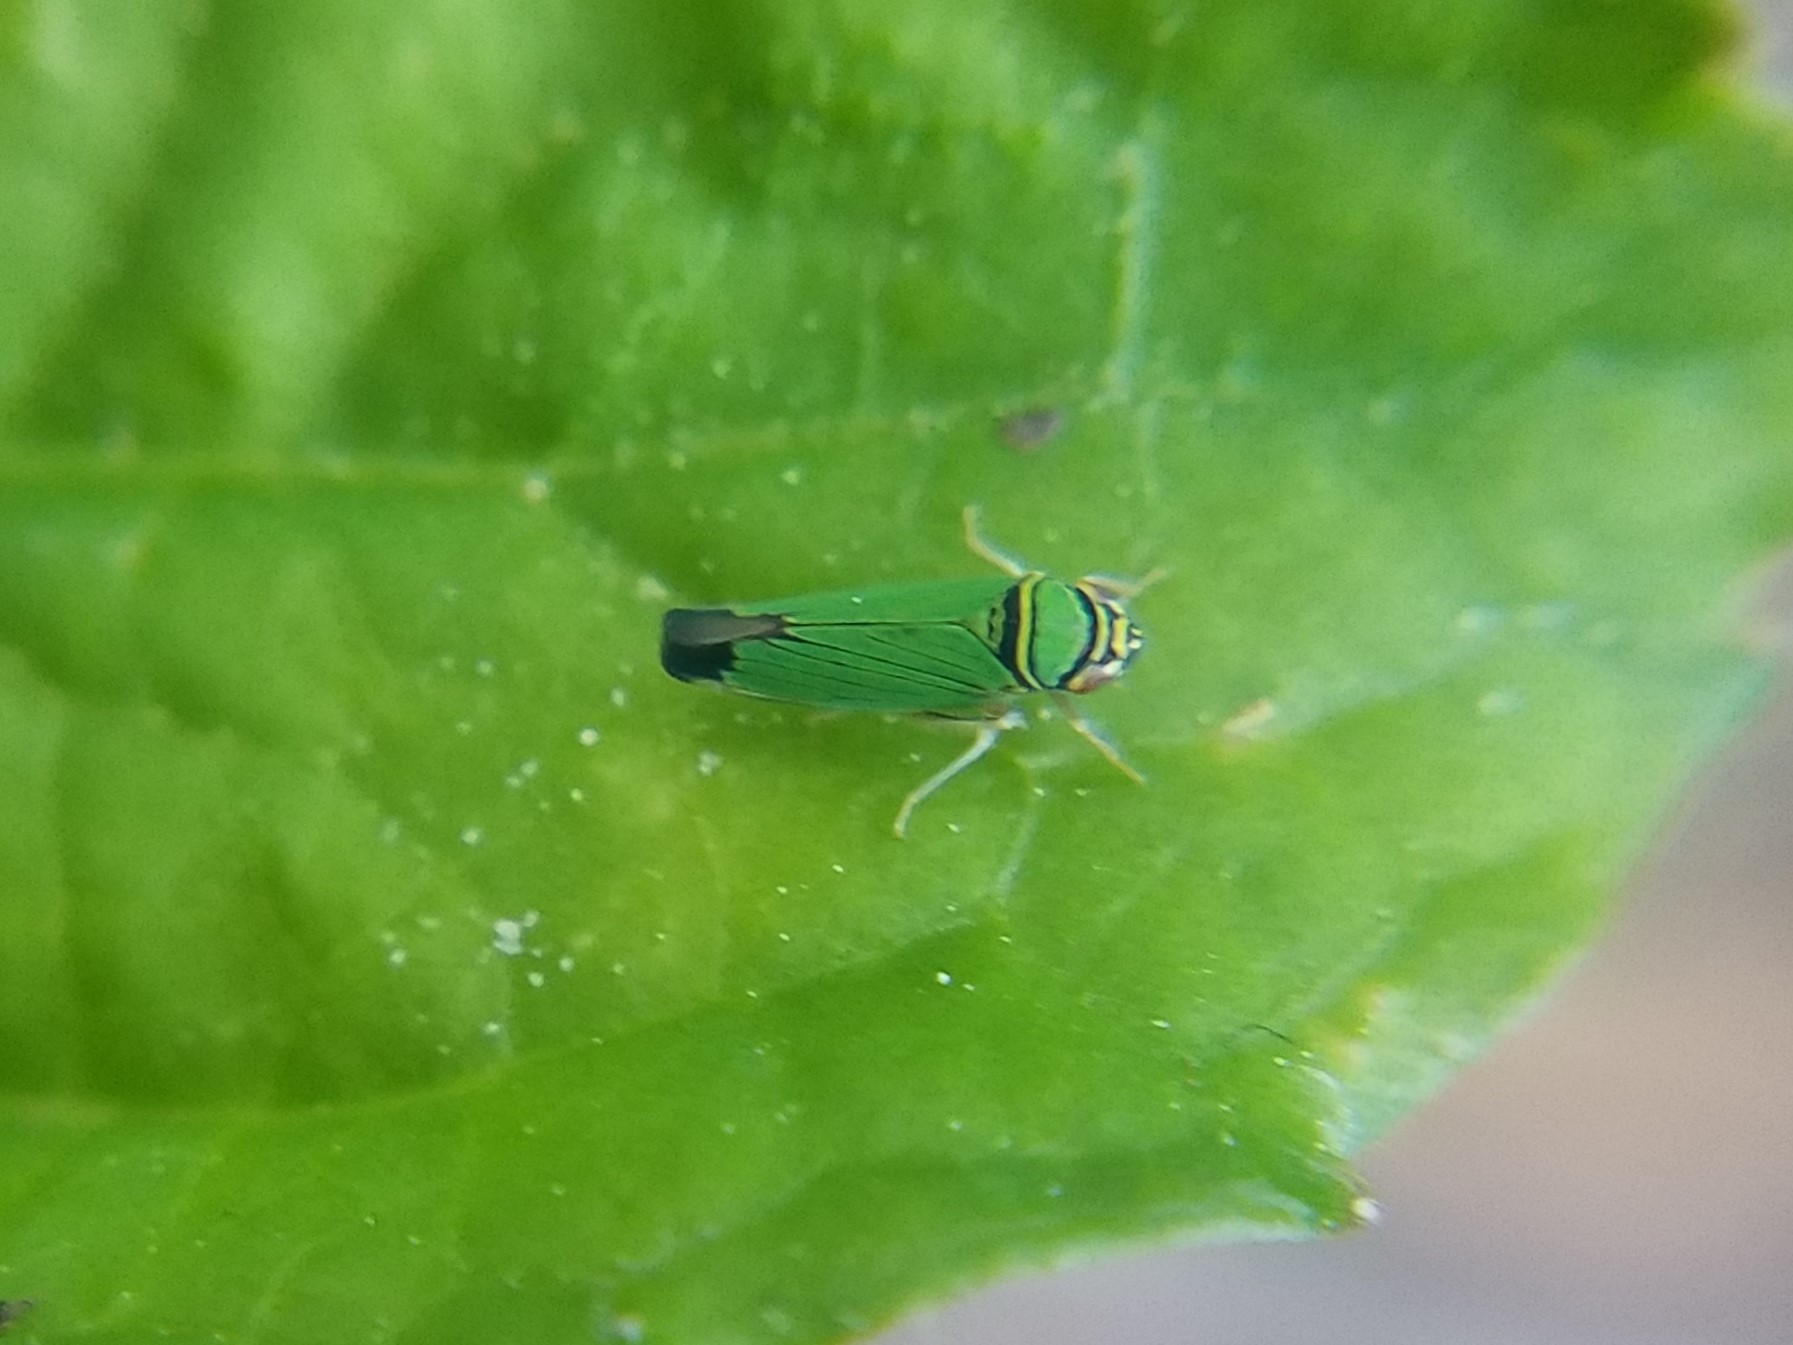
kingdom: Animalia
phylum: Arthropoda
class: Insecta
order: Hemiptera
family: Cicadellidae
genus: Tylozygus
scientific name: Tylozygus geometricus
